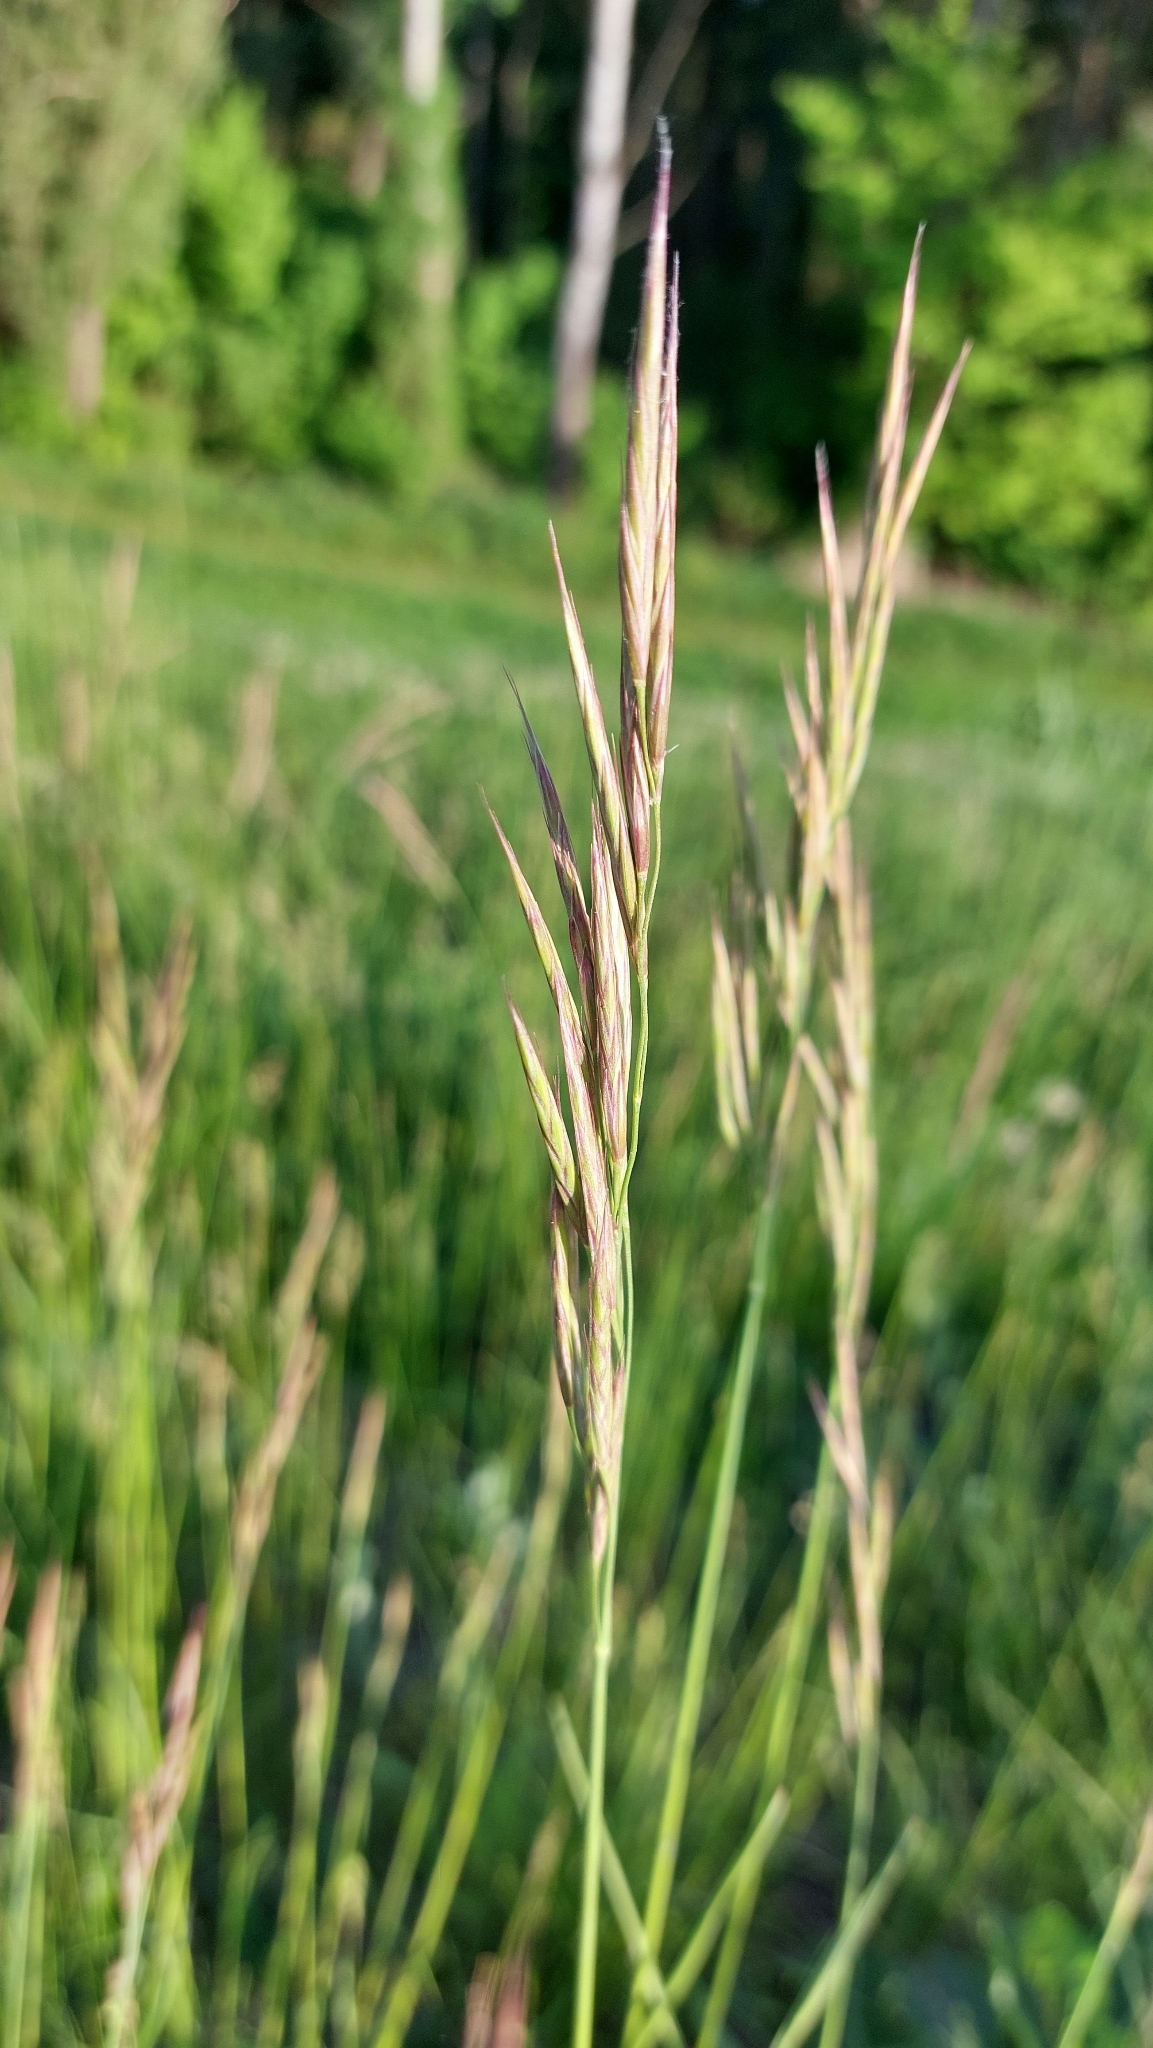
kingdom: Plantae
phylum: Tracheophyta
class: Liliopsida
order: Poales
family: Poaceae
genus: Bromus
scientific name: Bromus erectus
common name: Erect brome
